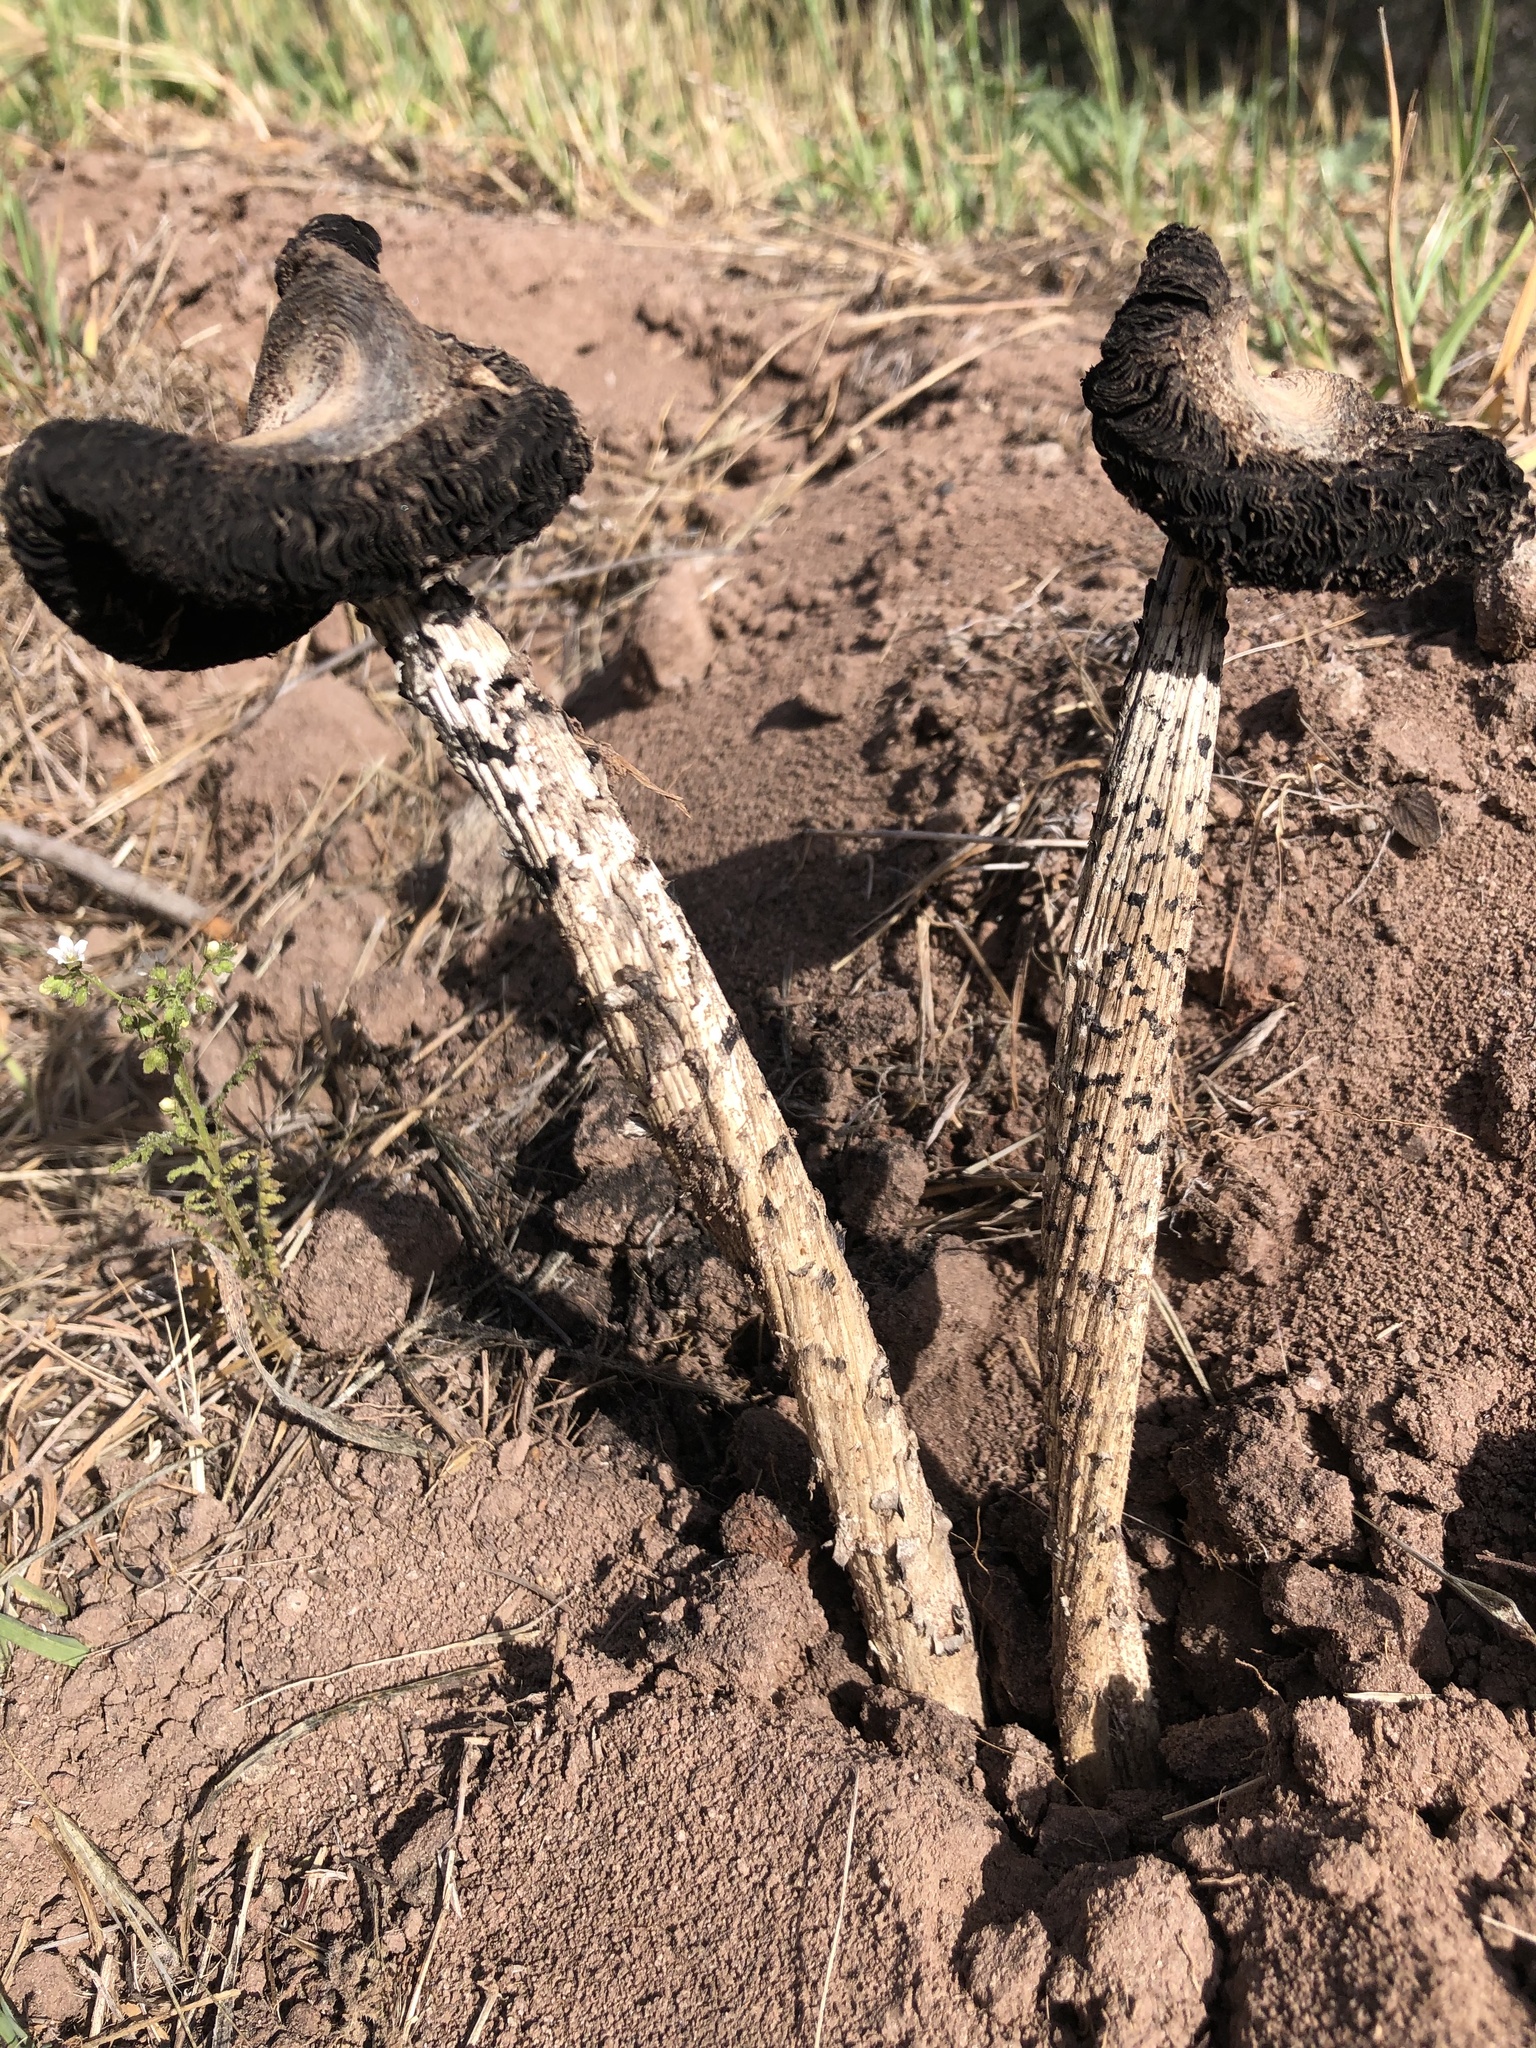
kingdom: Fungi
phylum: Basidiomycota
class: Agaricomycetes
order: Agaricales
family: Agaricaceae
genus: Montagnea
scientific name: Montagnea arenaria
